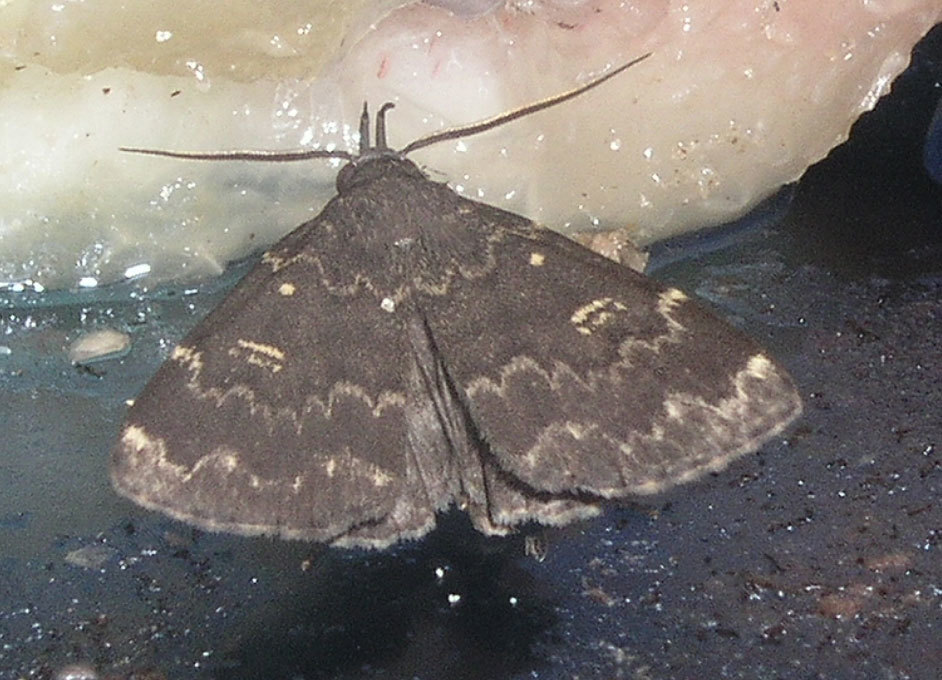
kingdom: Animalia
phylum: Arthropoda
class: Insecta
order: Lepidoptera
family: Erebidae
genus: Idia
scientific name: Idia lubricalis
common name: Twin-striped tabby
